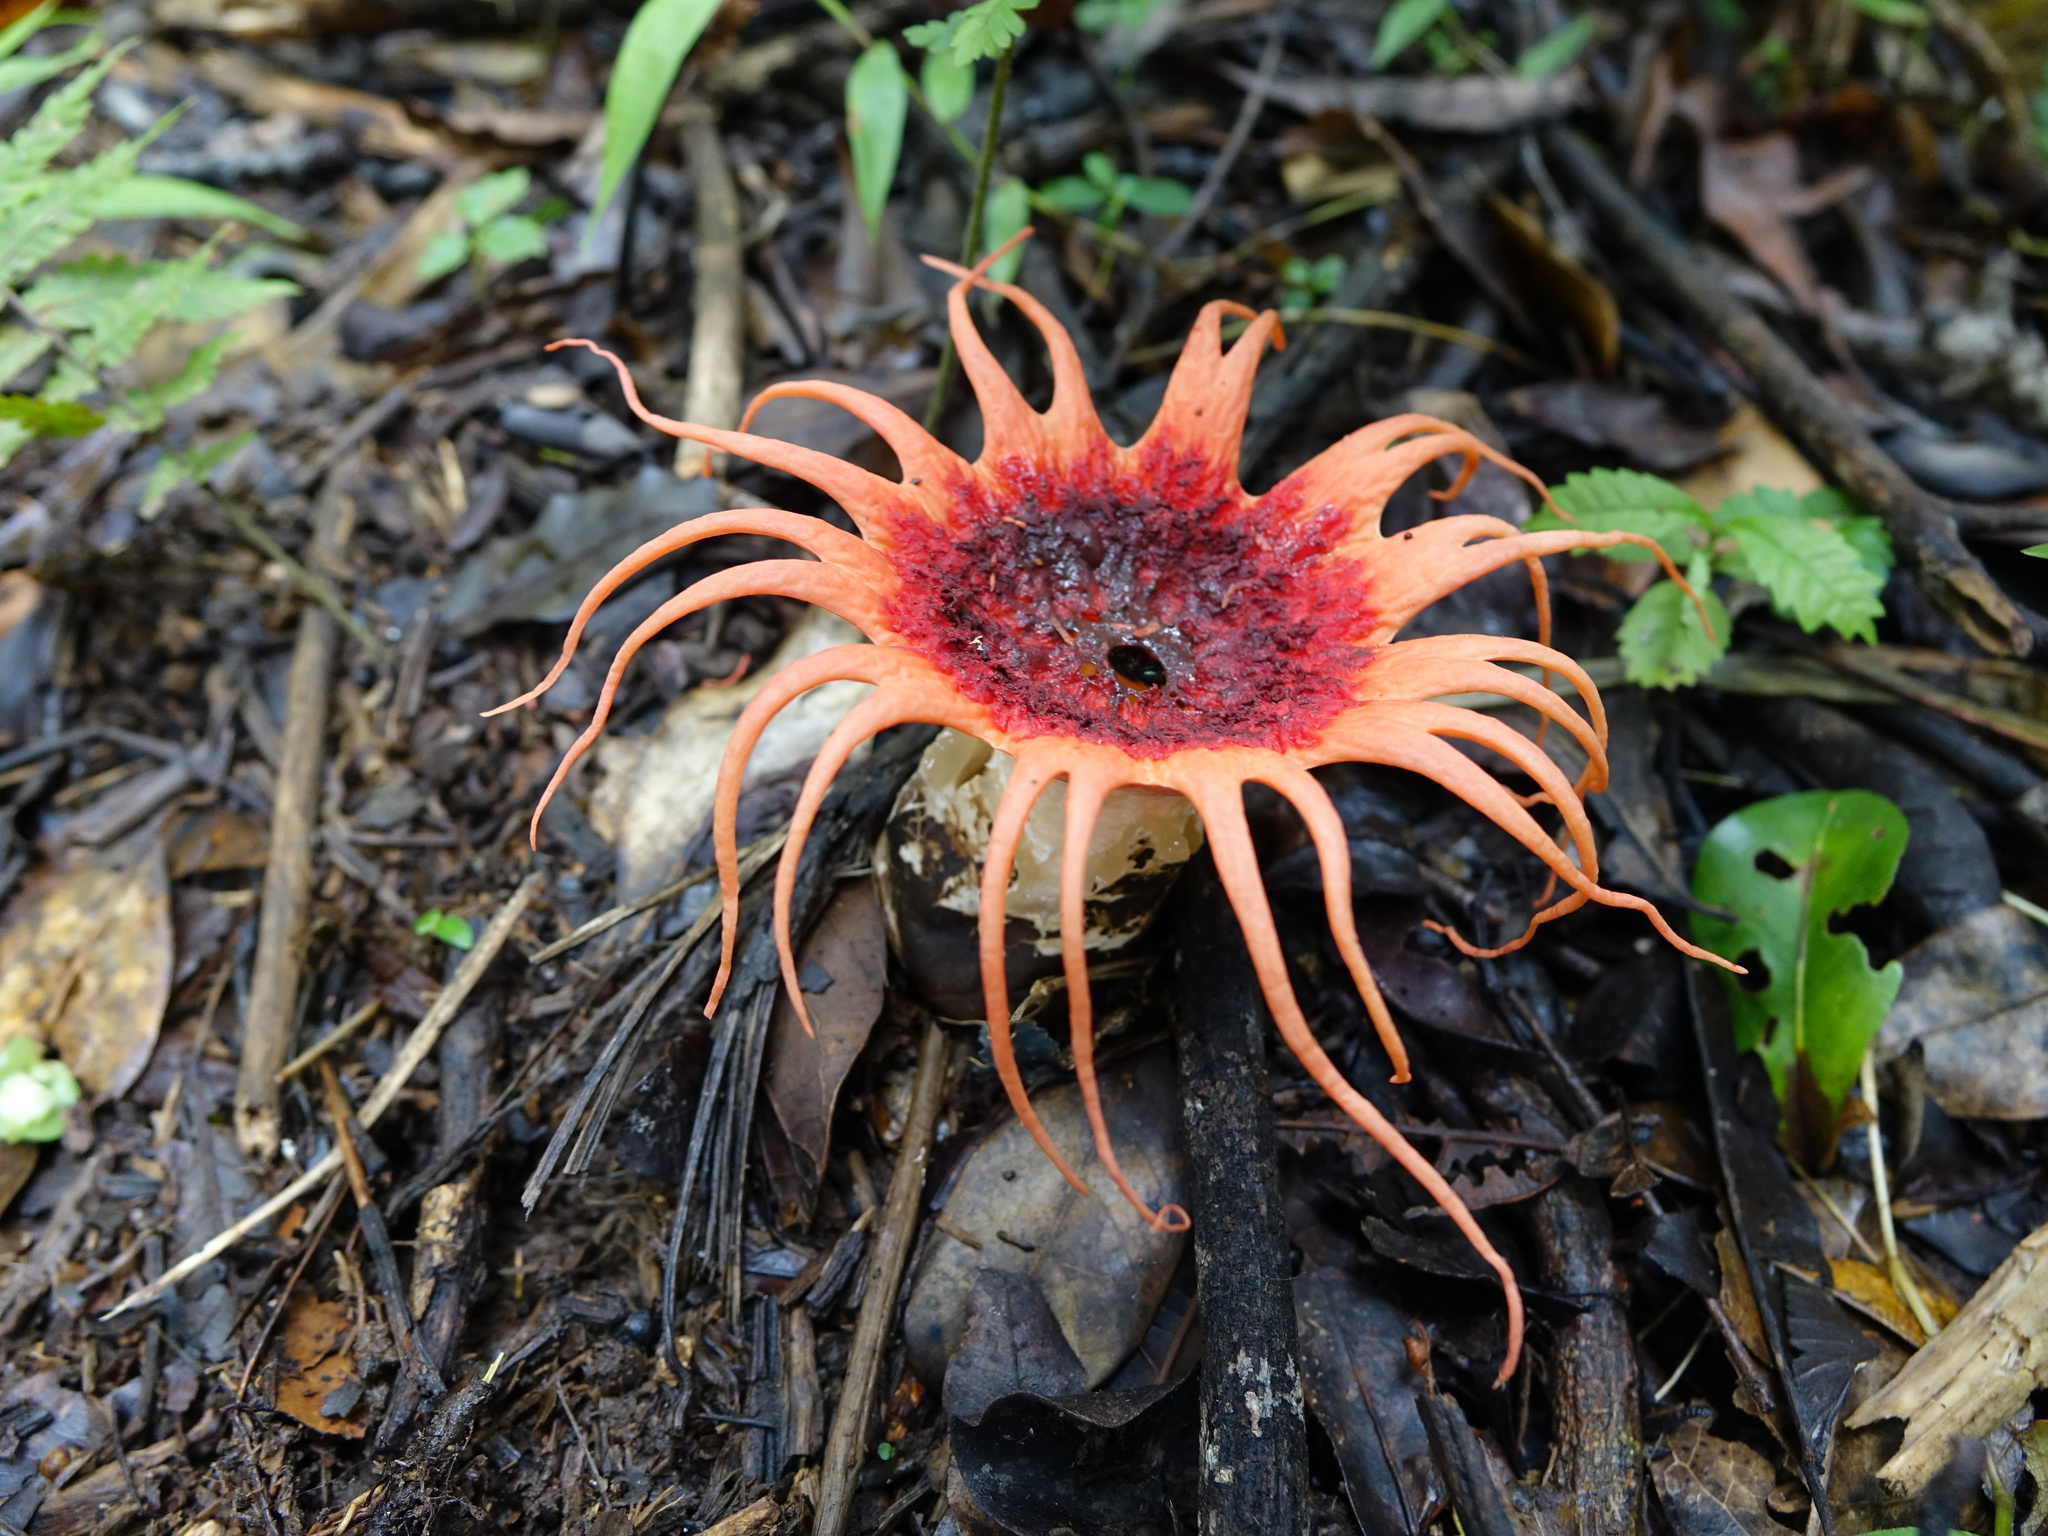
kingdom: Fungi
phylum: Basidiomycota
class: Agaricomycetes
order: Phallales
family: Phallaceae
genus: Aseroe
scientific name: Aseroe rubra
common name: Starfish fungus
